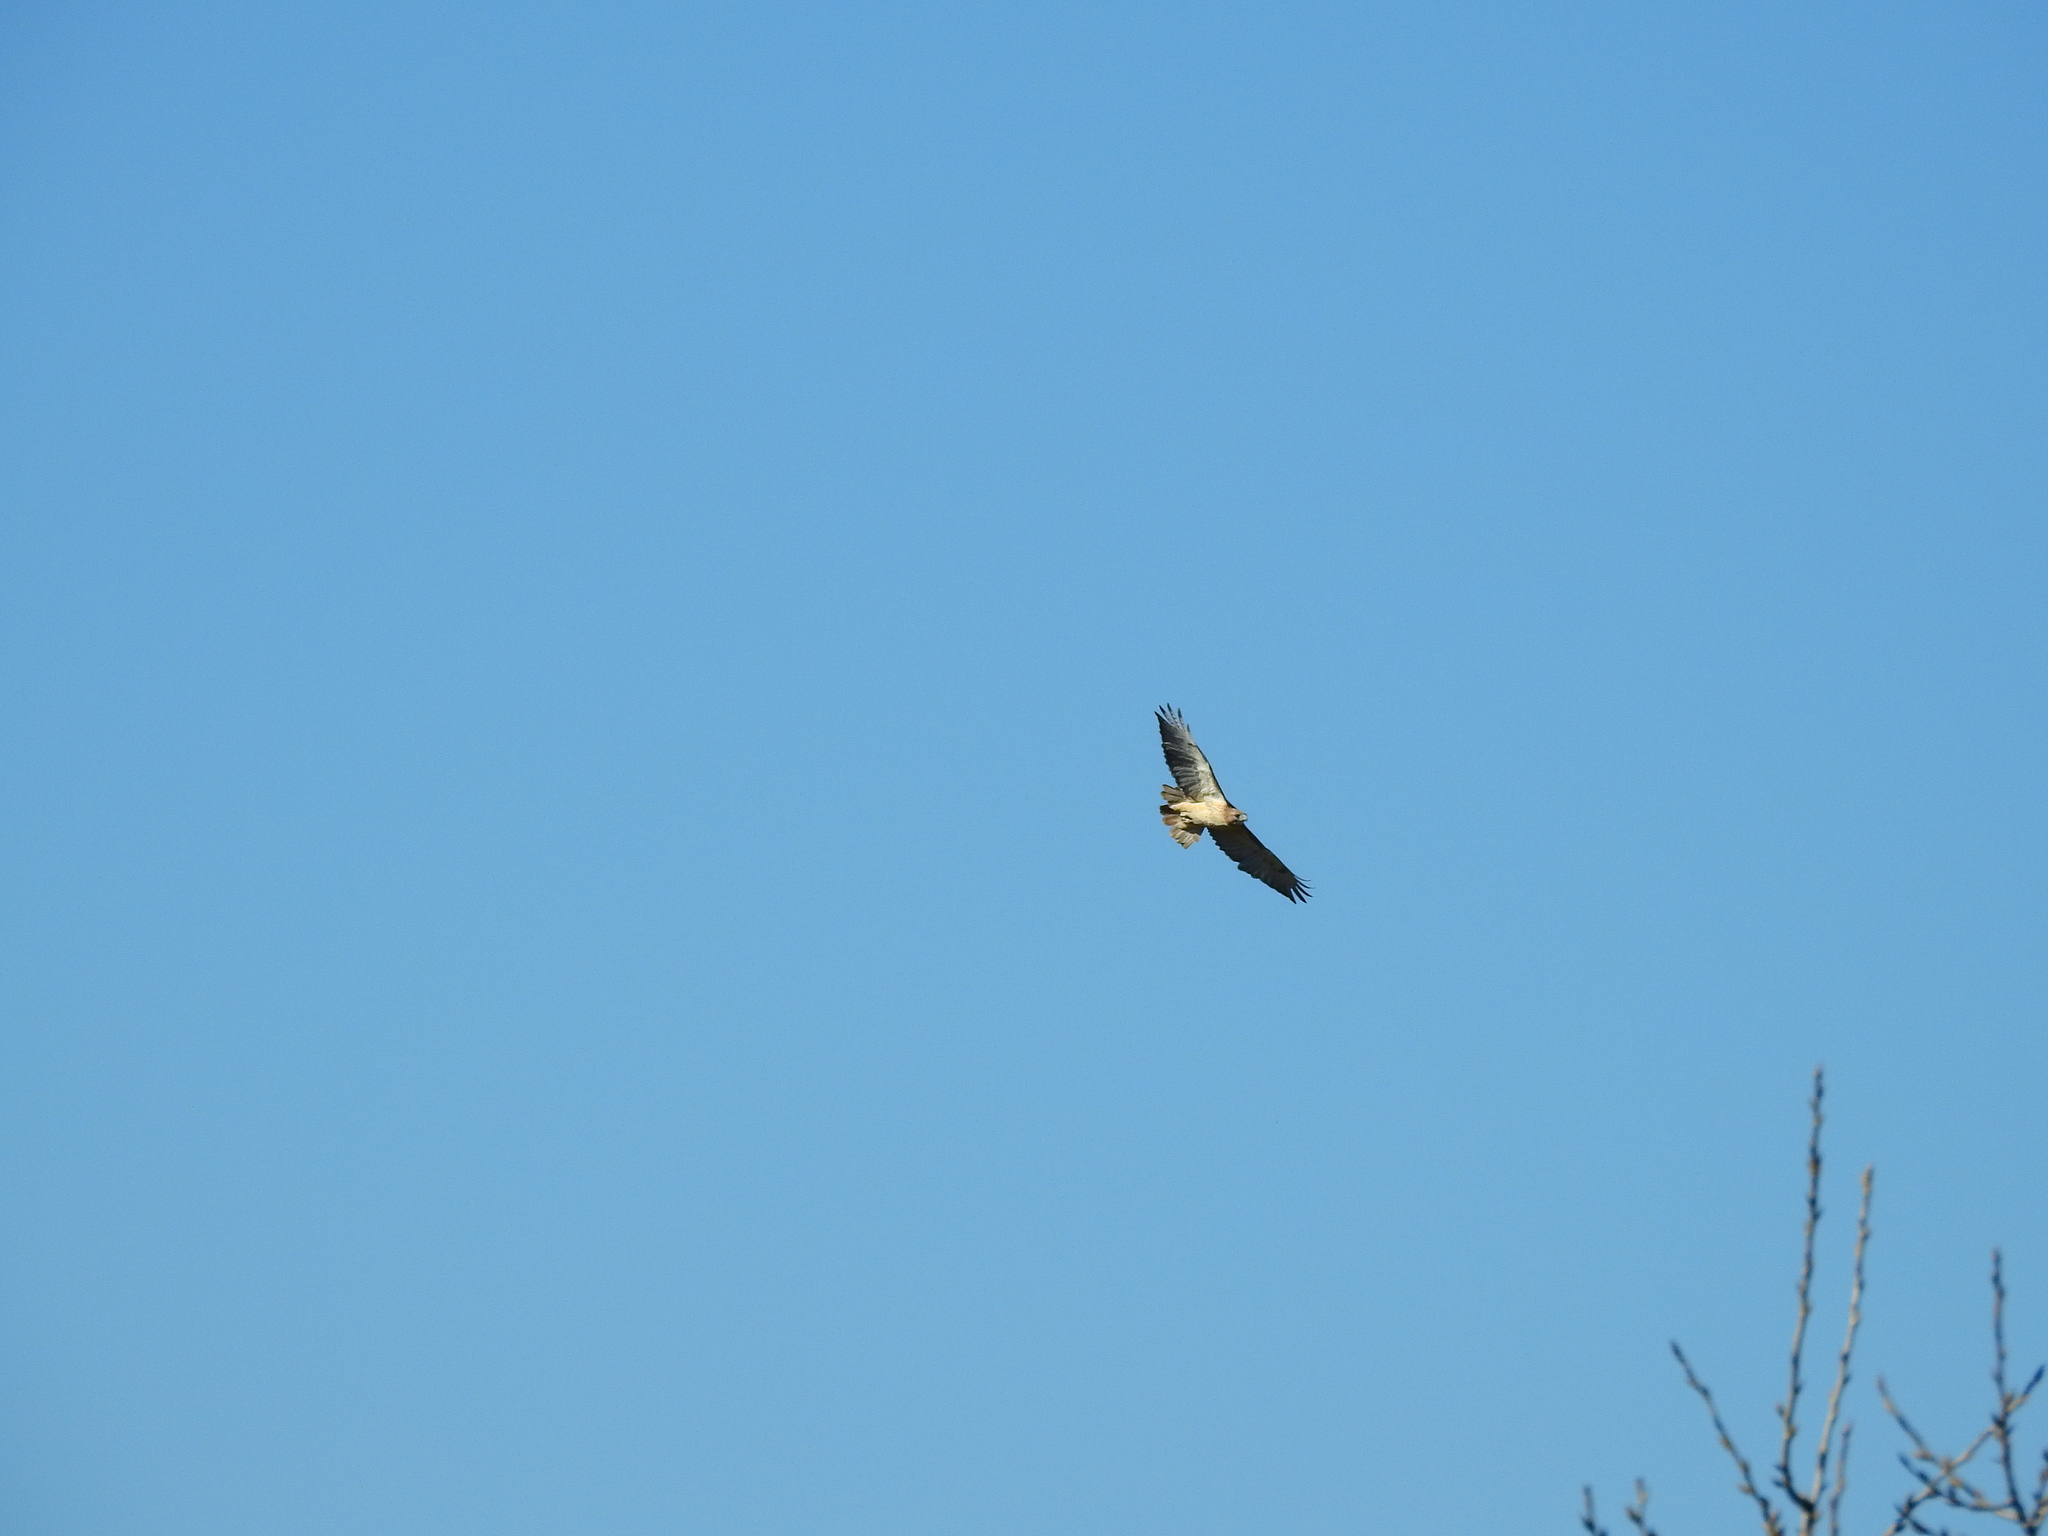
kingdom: Animalia
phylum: Chordata
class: Aves
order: Accipitriformes
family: Accipitridae
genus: Buteo
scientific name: Buteo jamaicensis
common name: Red-tailed hawk
